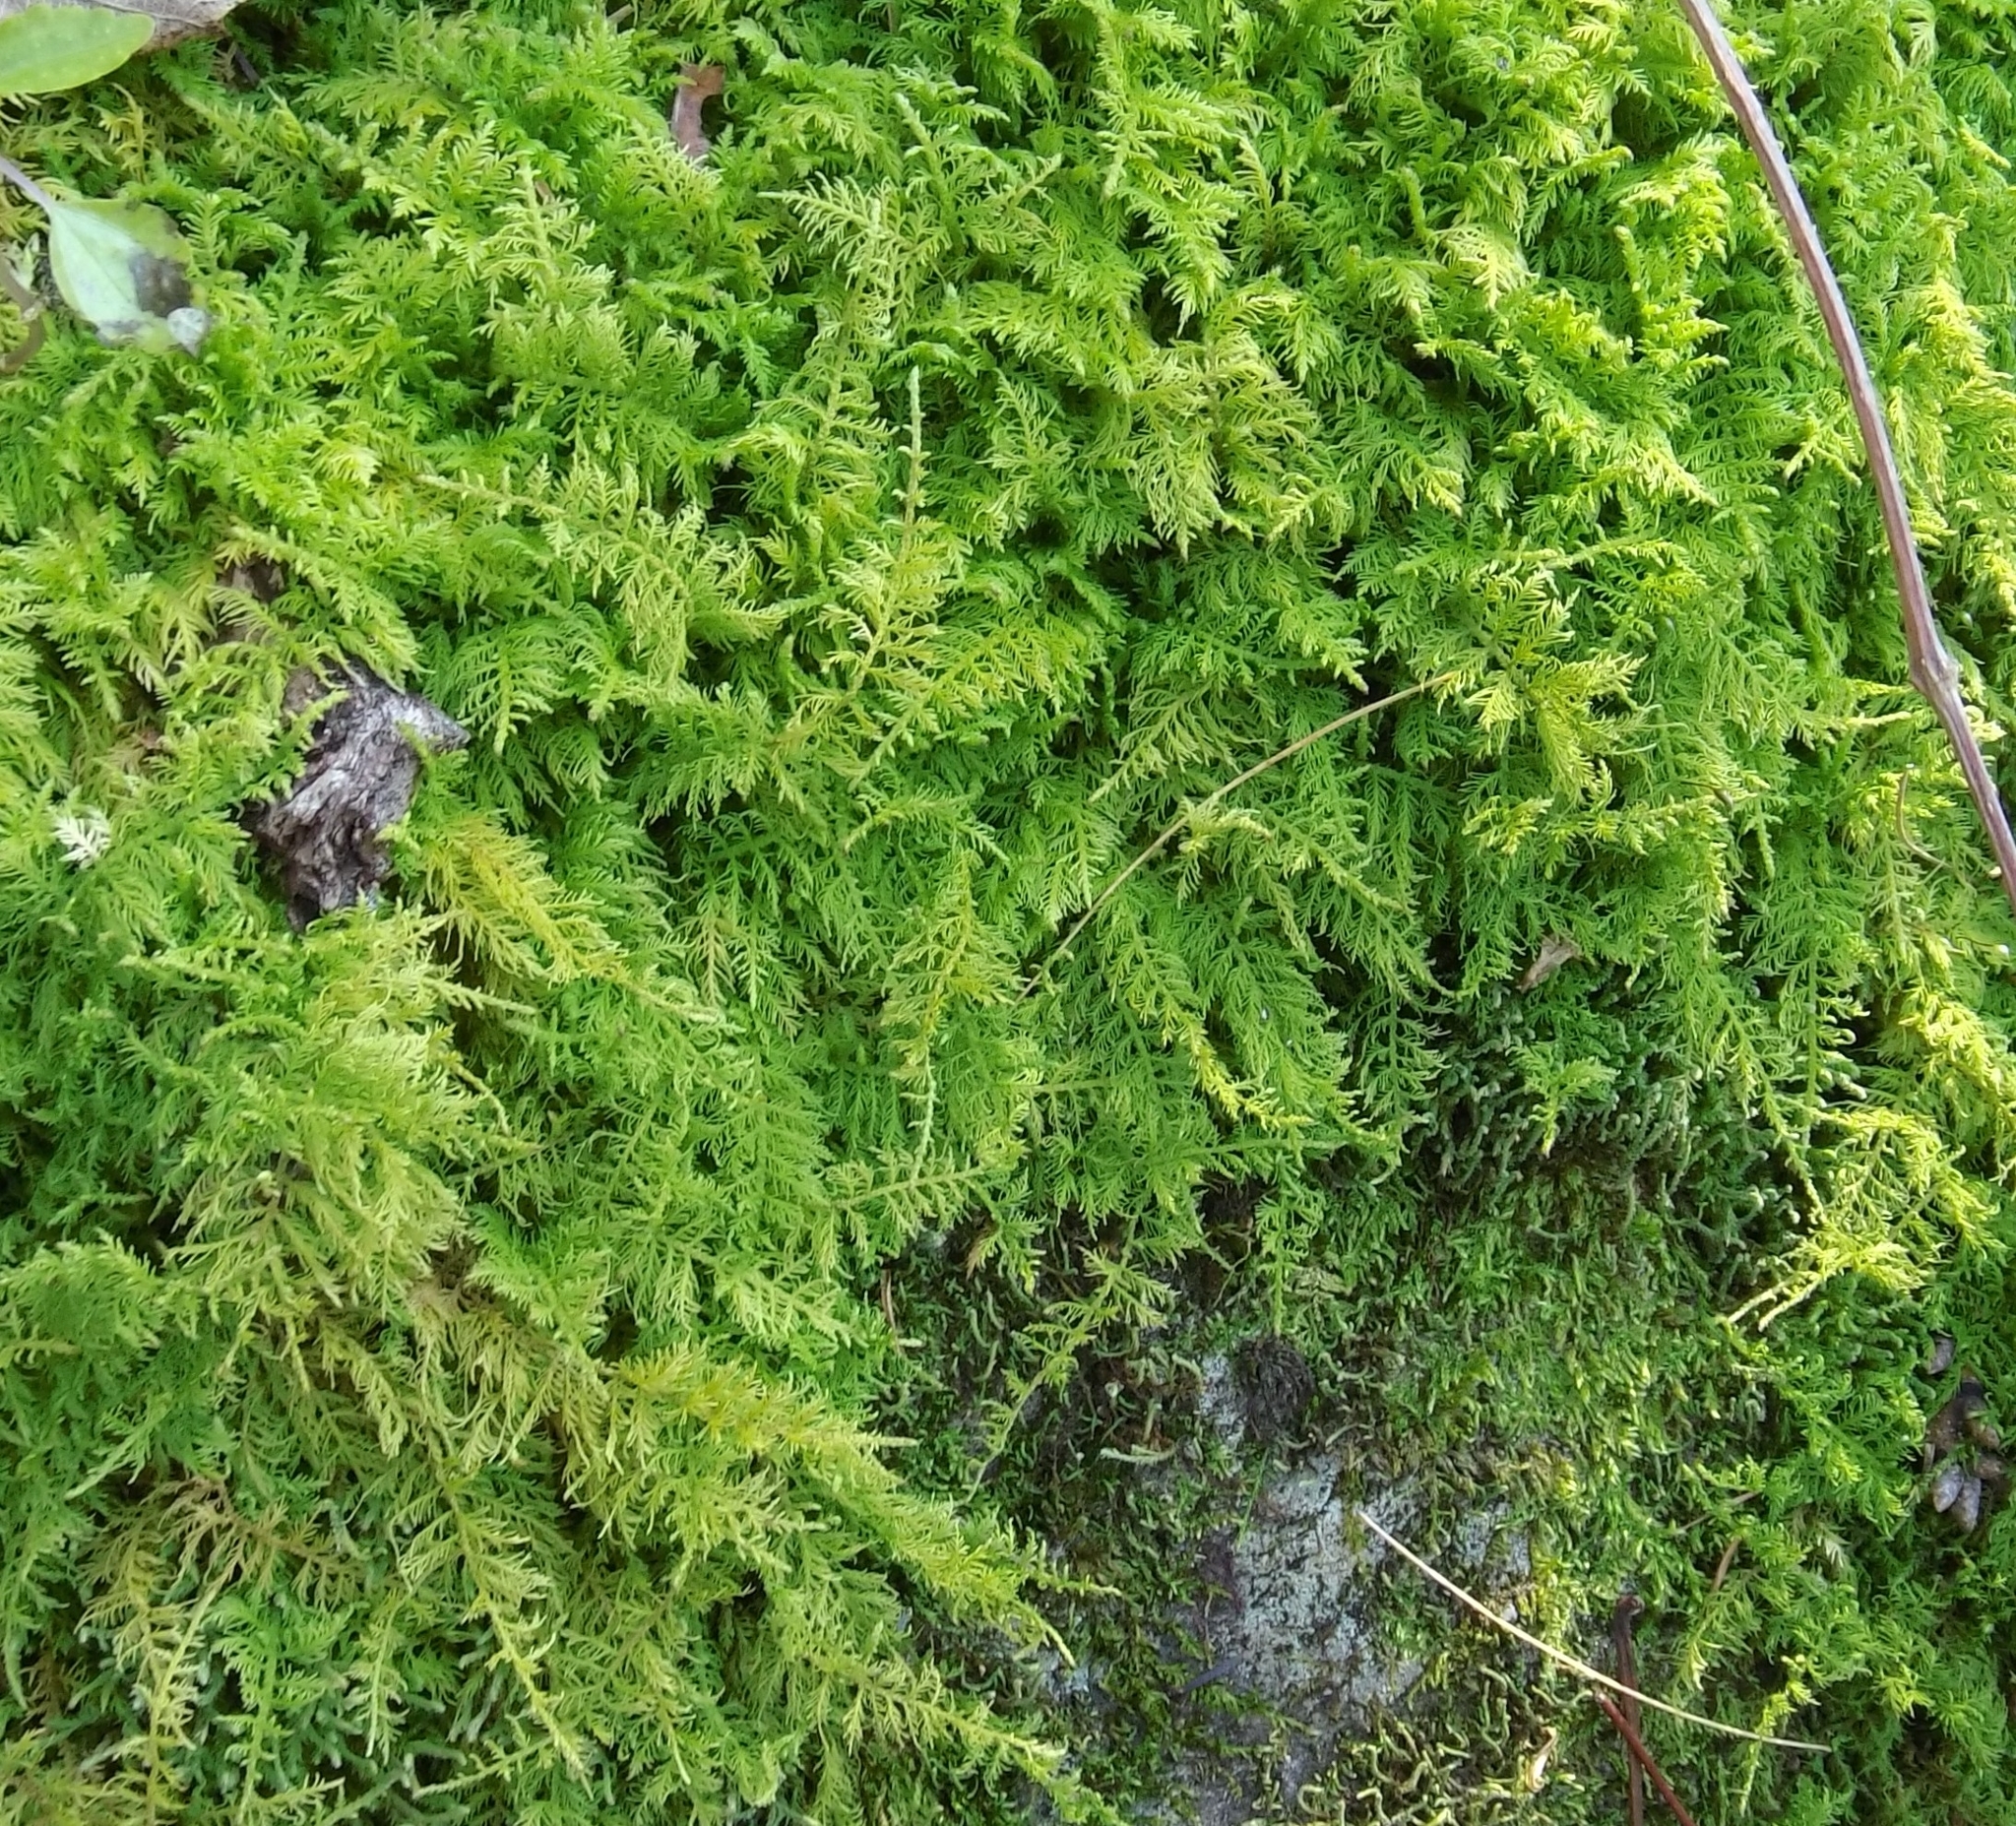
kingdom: Plantae
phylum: Bryophyta
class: Bryopsida
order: Hypnales
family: Thuidiaceae
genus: Thuidium
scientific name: Thuidium delicatulum
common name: Delicate fern moss
